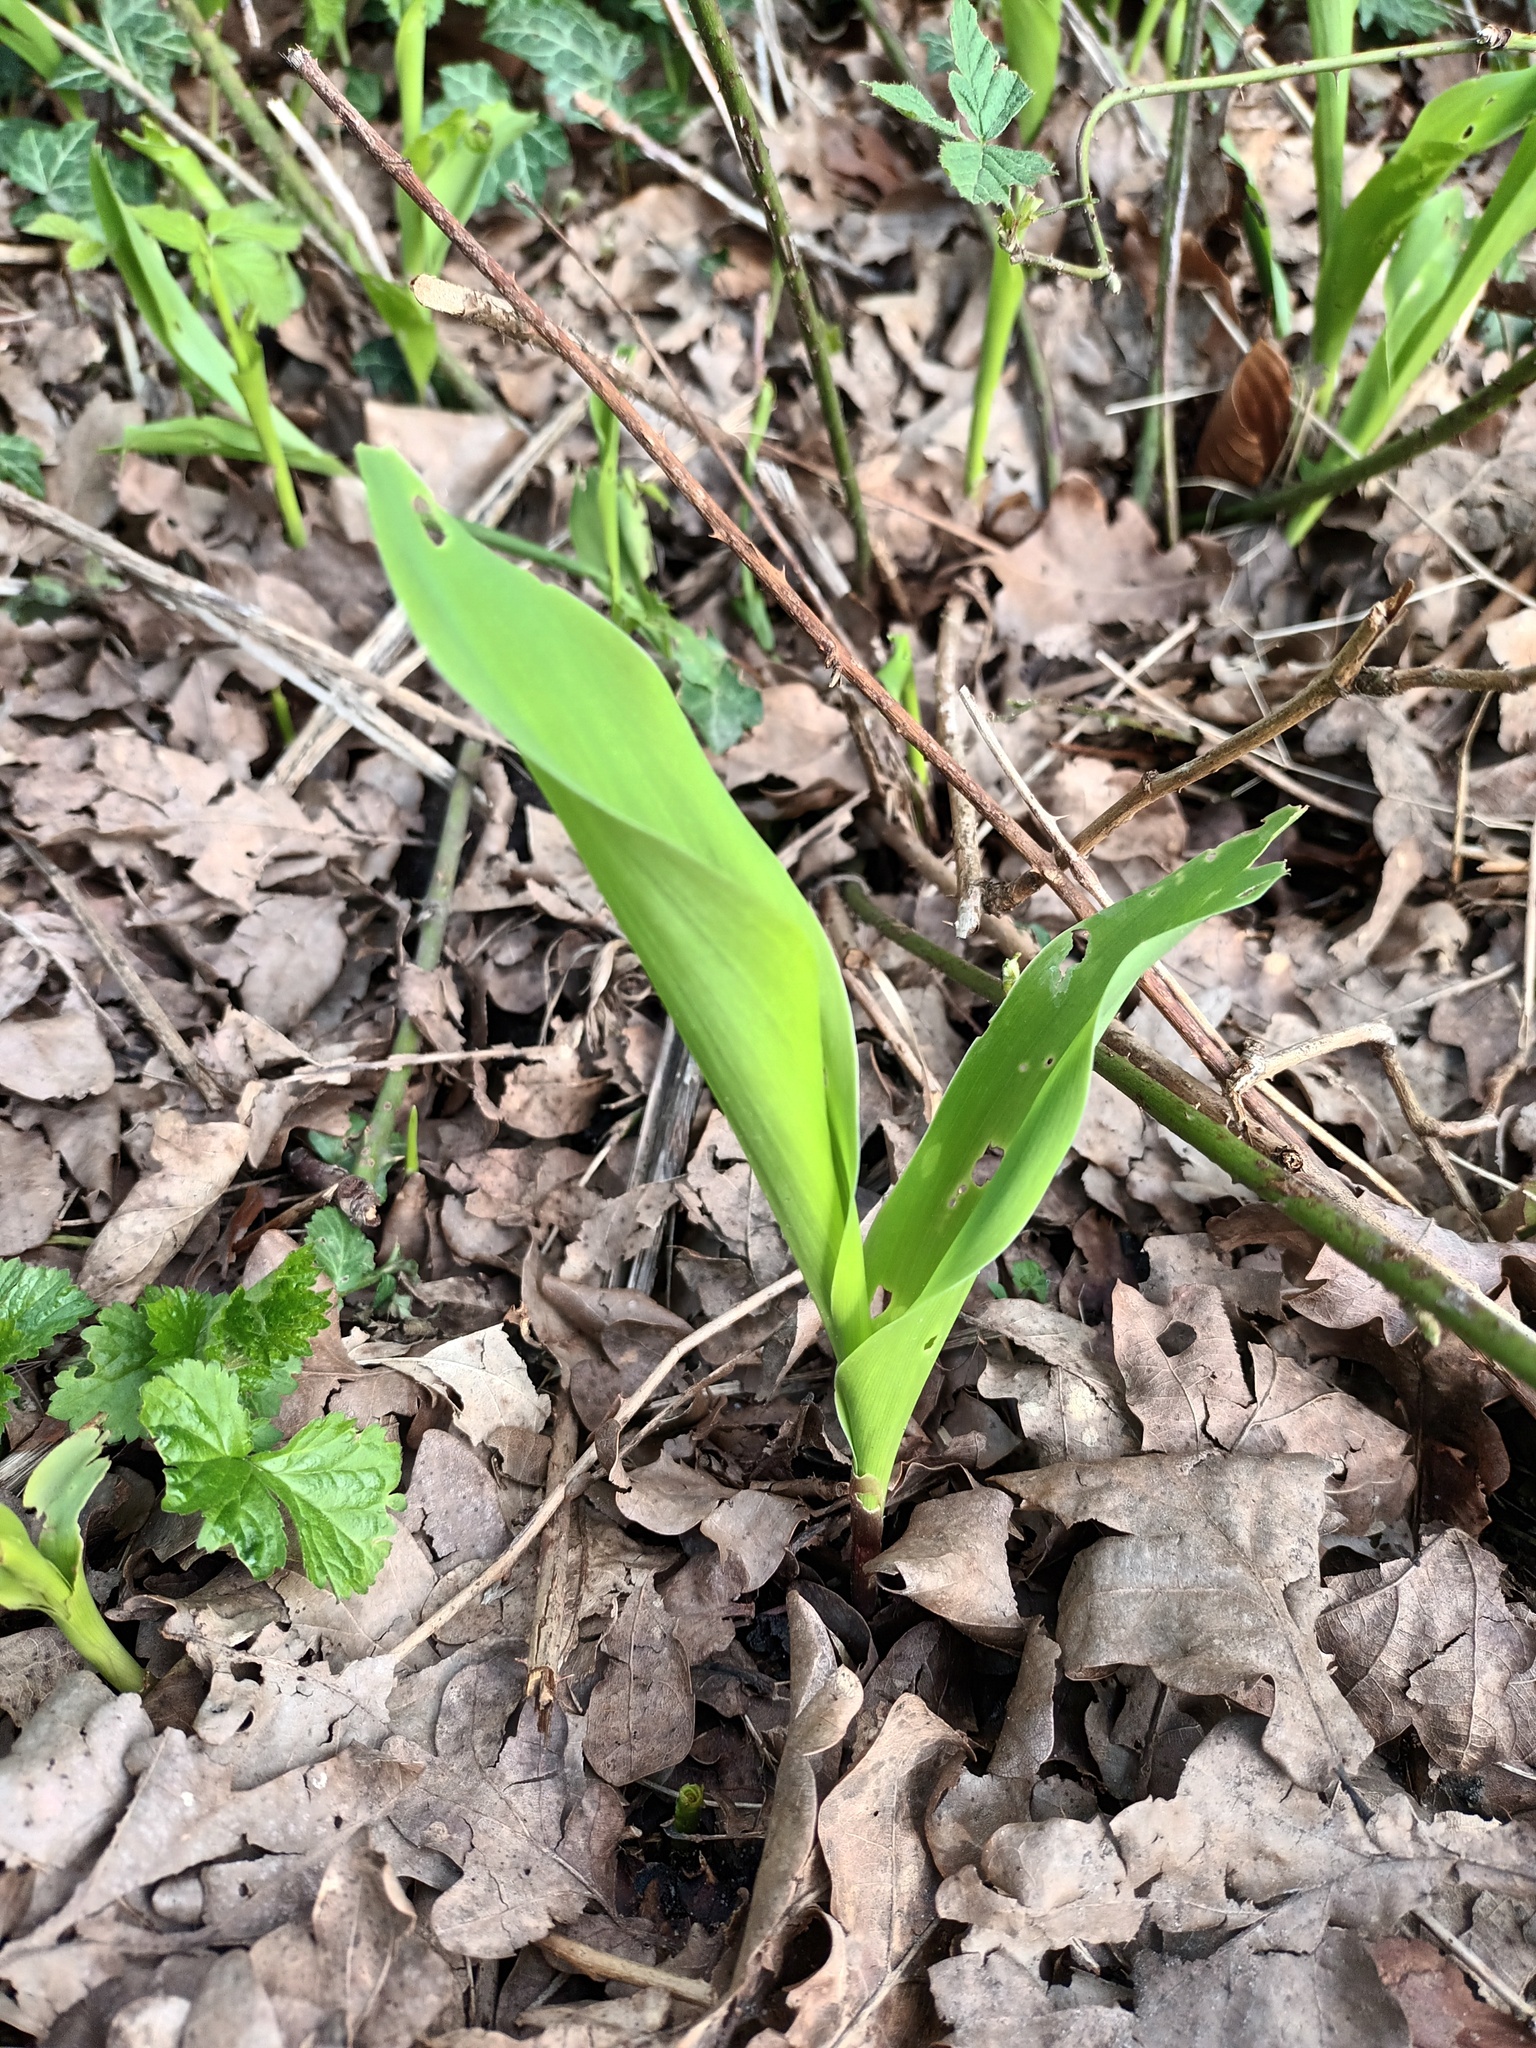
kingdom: Plantae
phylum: Tracheophyta
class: Liliopsida
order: Asparagales
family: Asparagaceae
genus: Convallaria
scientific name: Convallaria majalis
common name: Lily-of-the-valley
